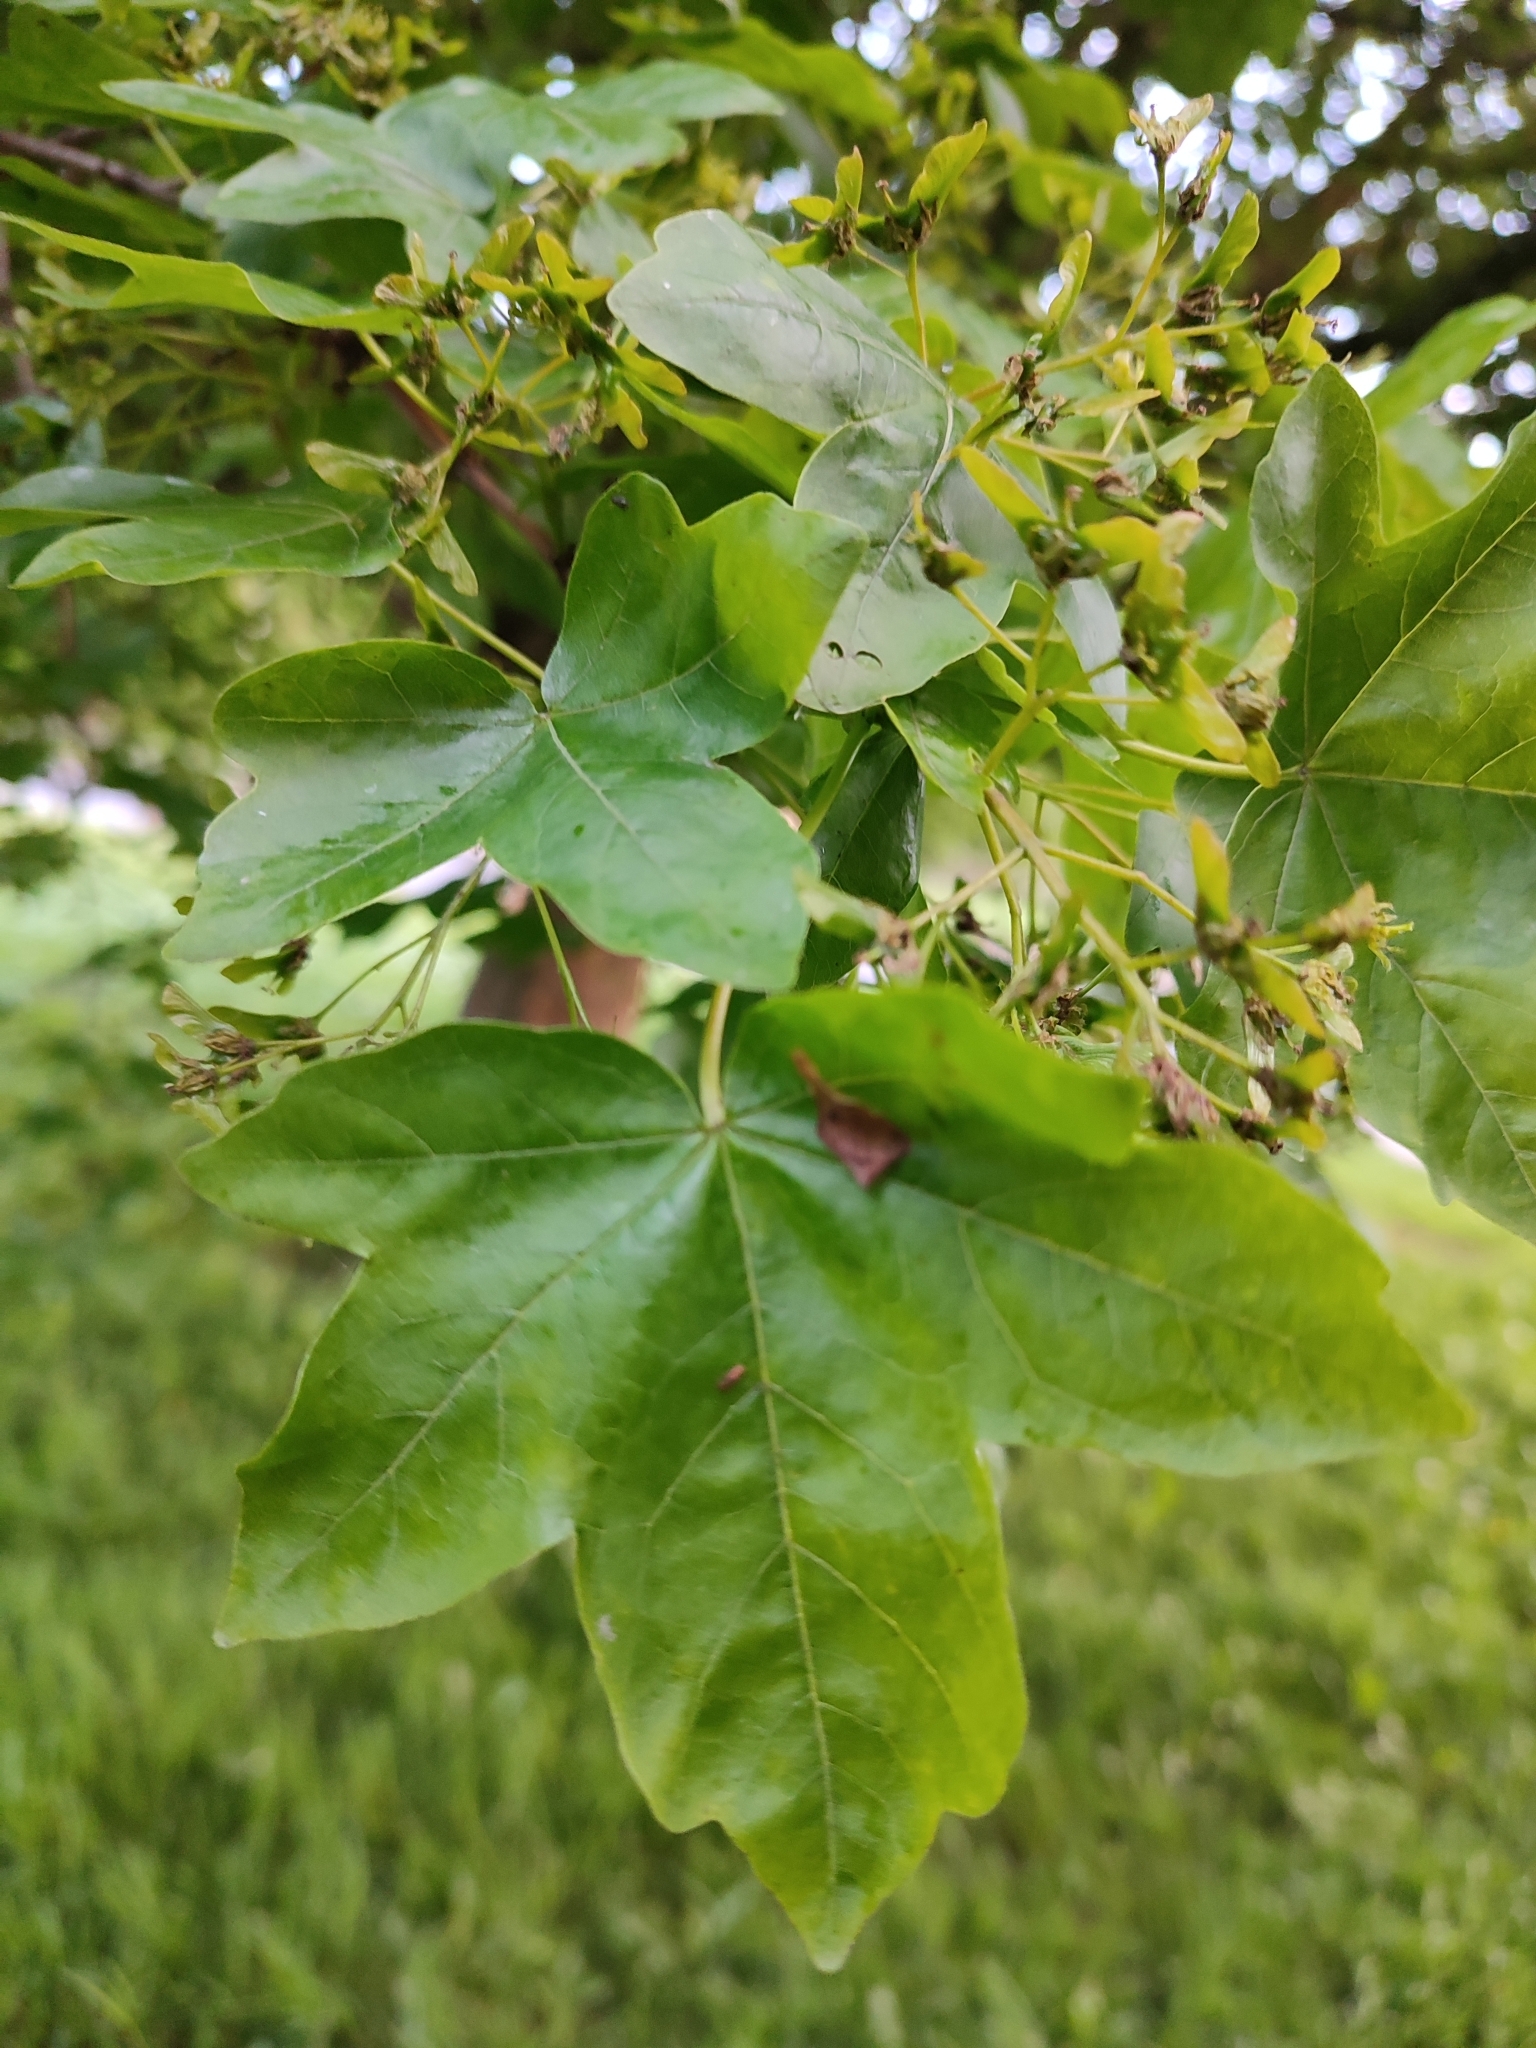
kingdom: Plantae
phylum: Tracheophyta
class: Magnoliopsida
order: Sapindales
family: Sapindaceae
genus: Acer
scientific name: Acer campestre
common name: Field maple
